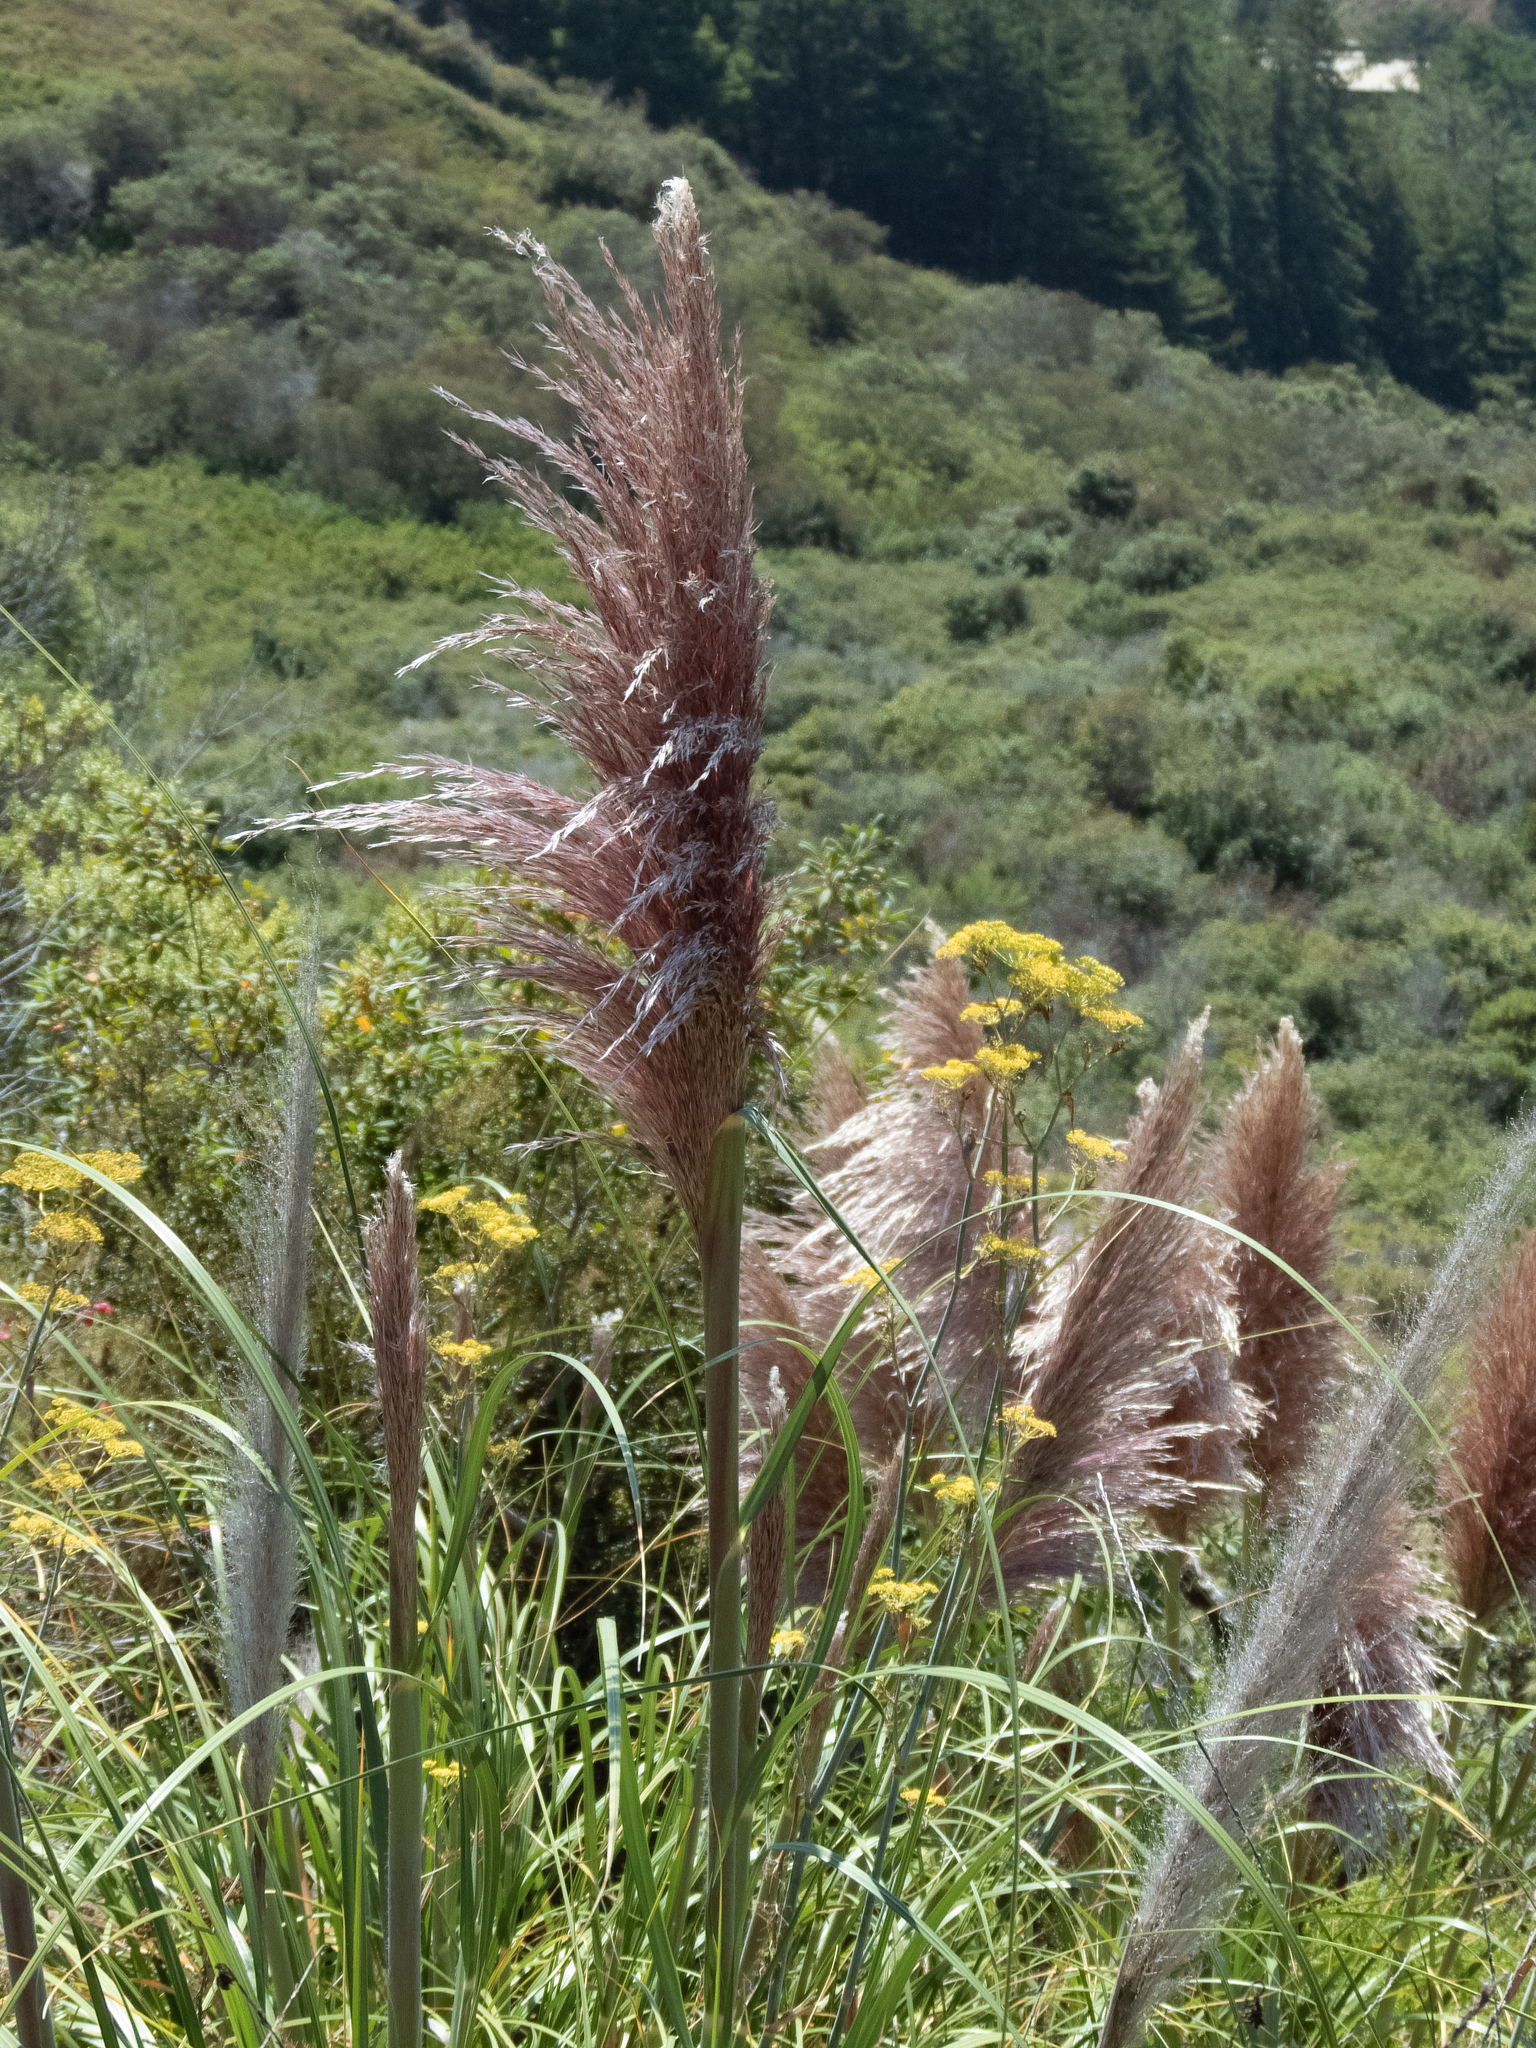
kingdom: Plantae
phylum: Tracheophyta
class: Liliopsida
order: Poales
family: Poaceae
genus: Cortaderia
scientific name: Cortaderia jubata
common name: Purple pampas grass
